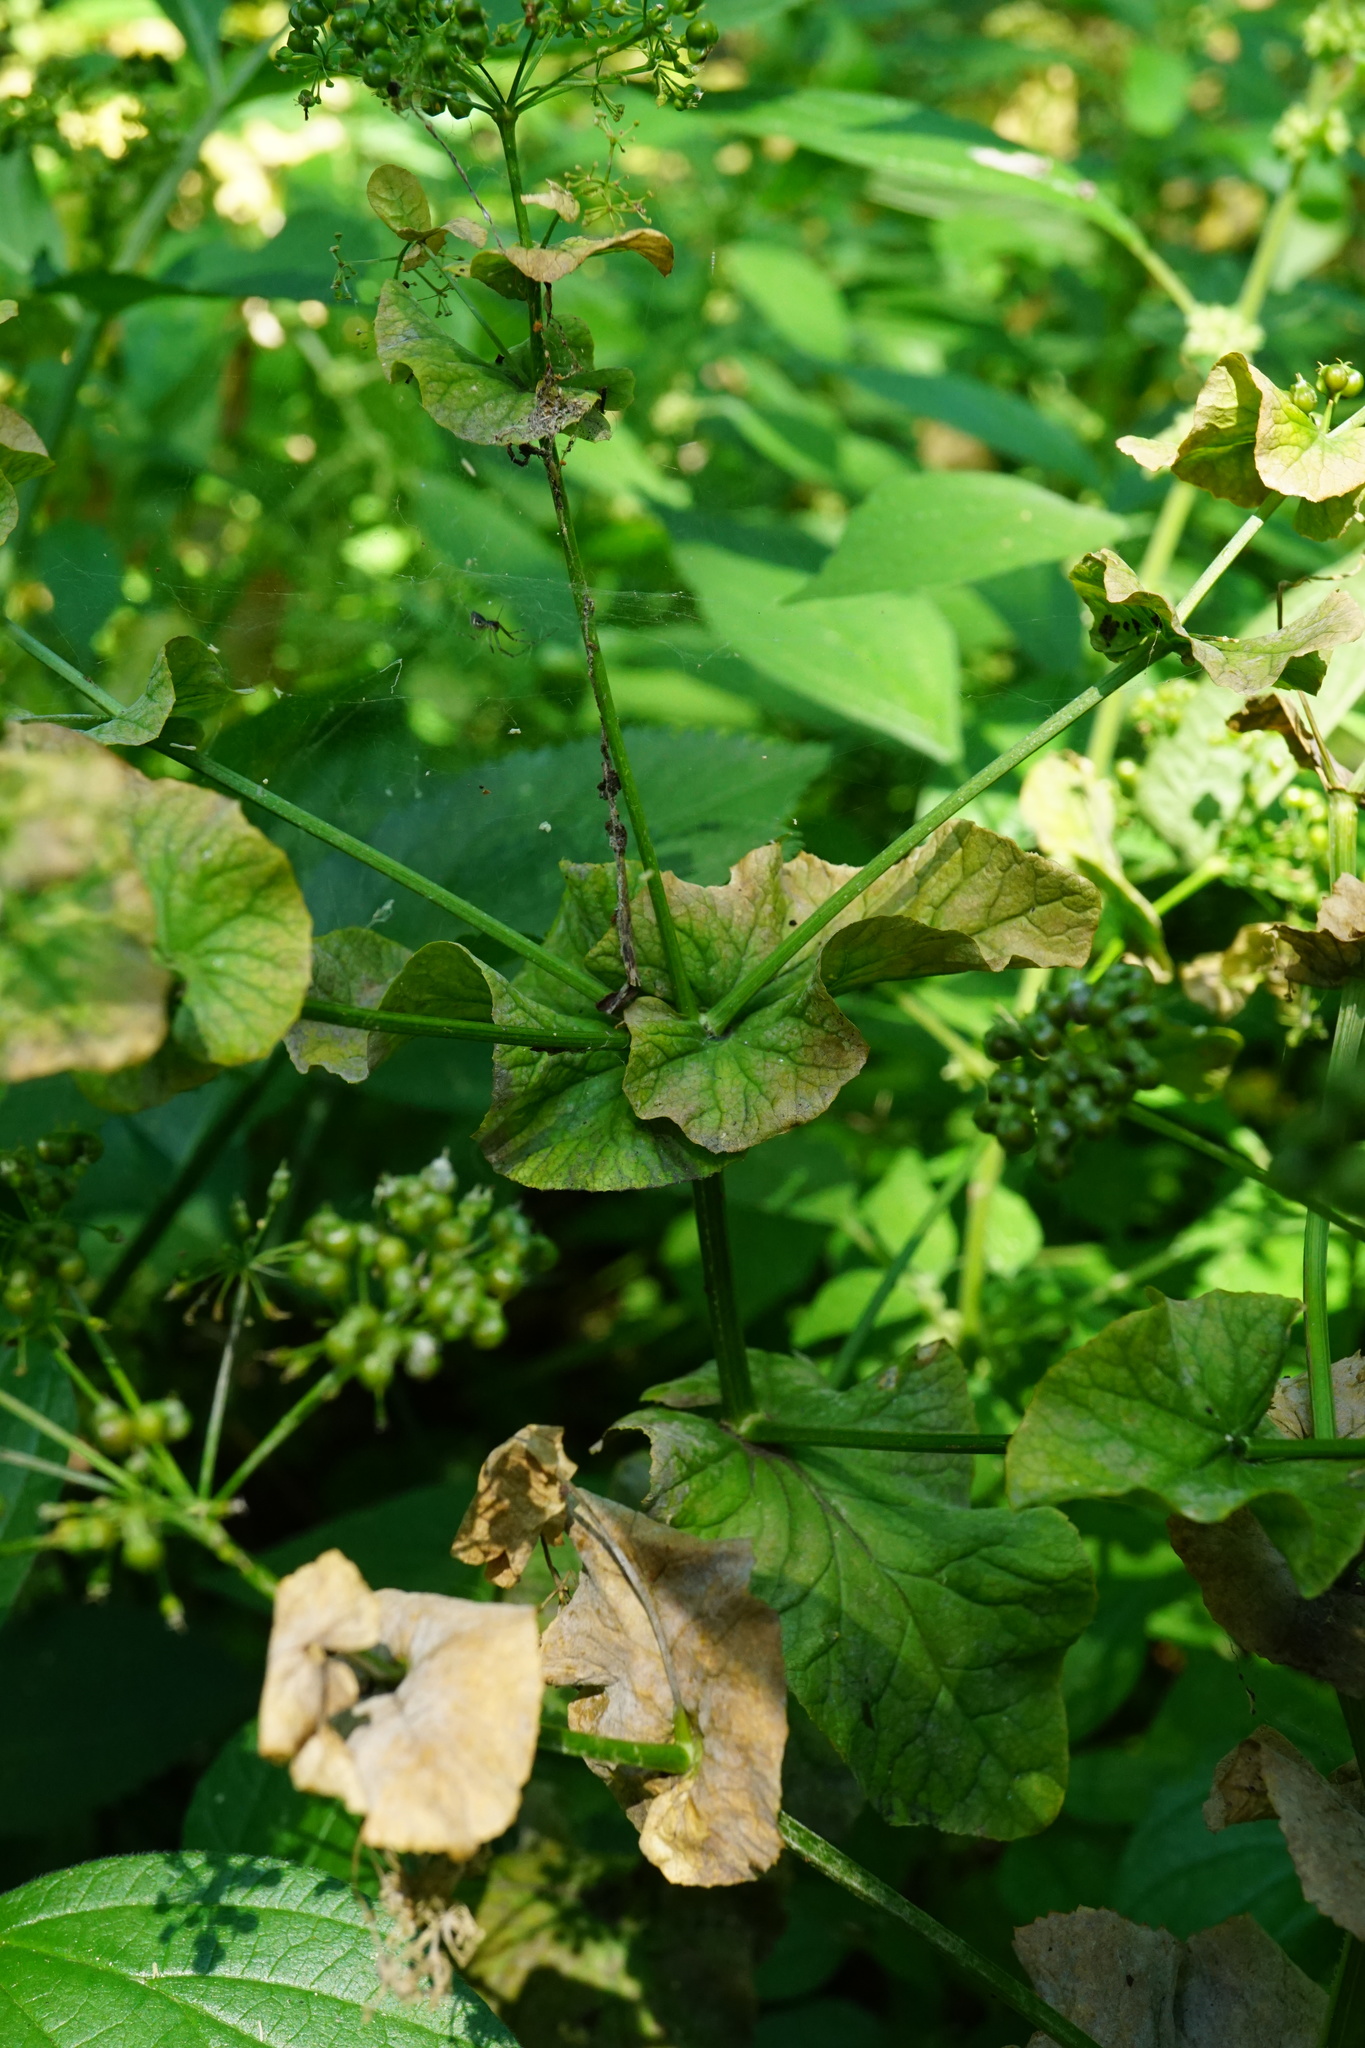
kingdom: Plantae
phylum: Tracheophyta
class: Magnoliopsida
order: Apiales
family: Apiaceae
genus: Smyrnium
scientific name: Smyrnium perfoliatum
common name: Perfoliate alexanders
